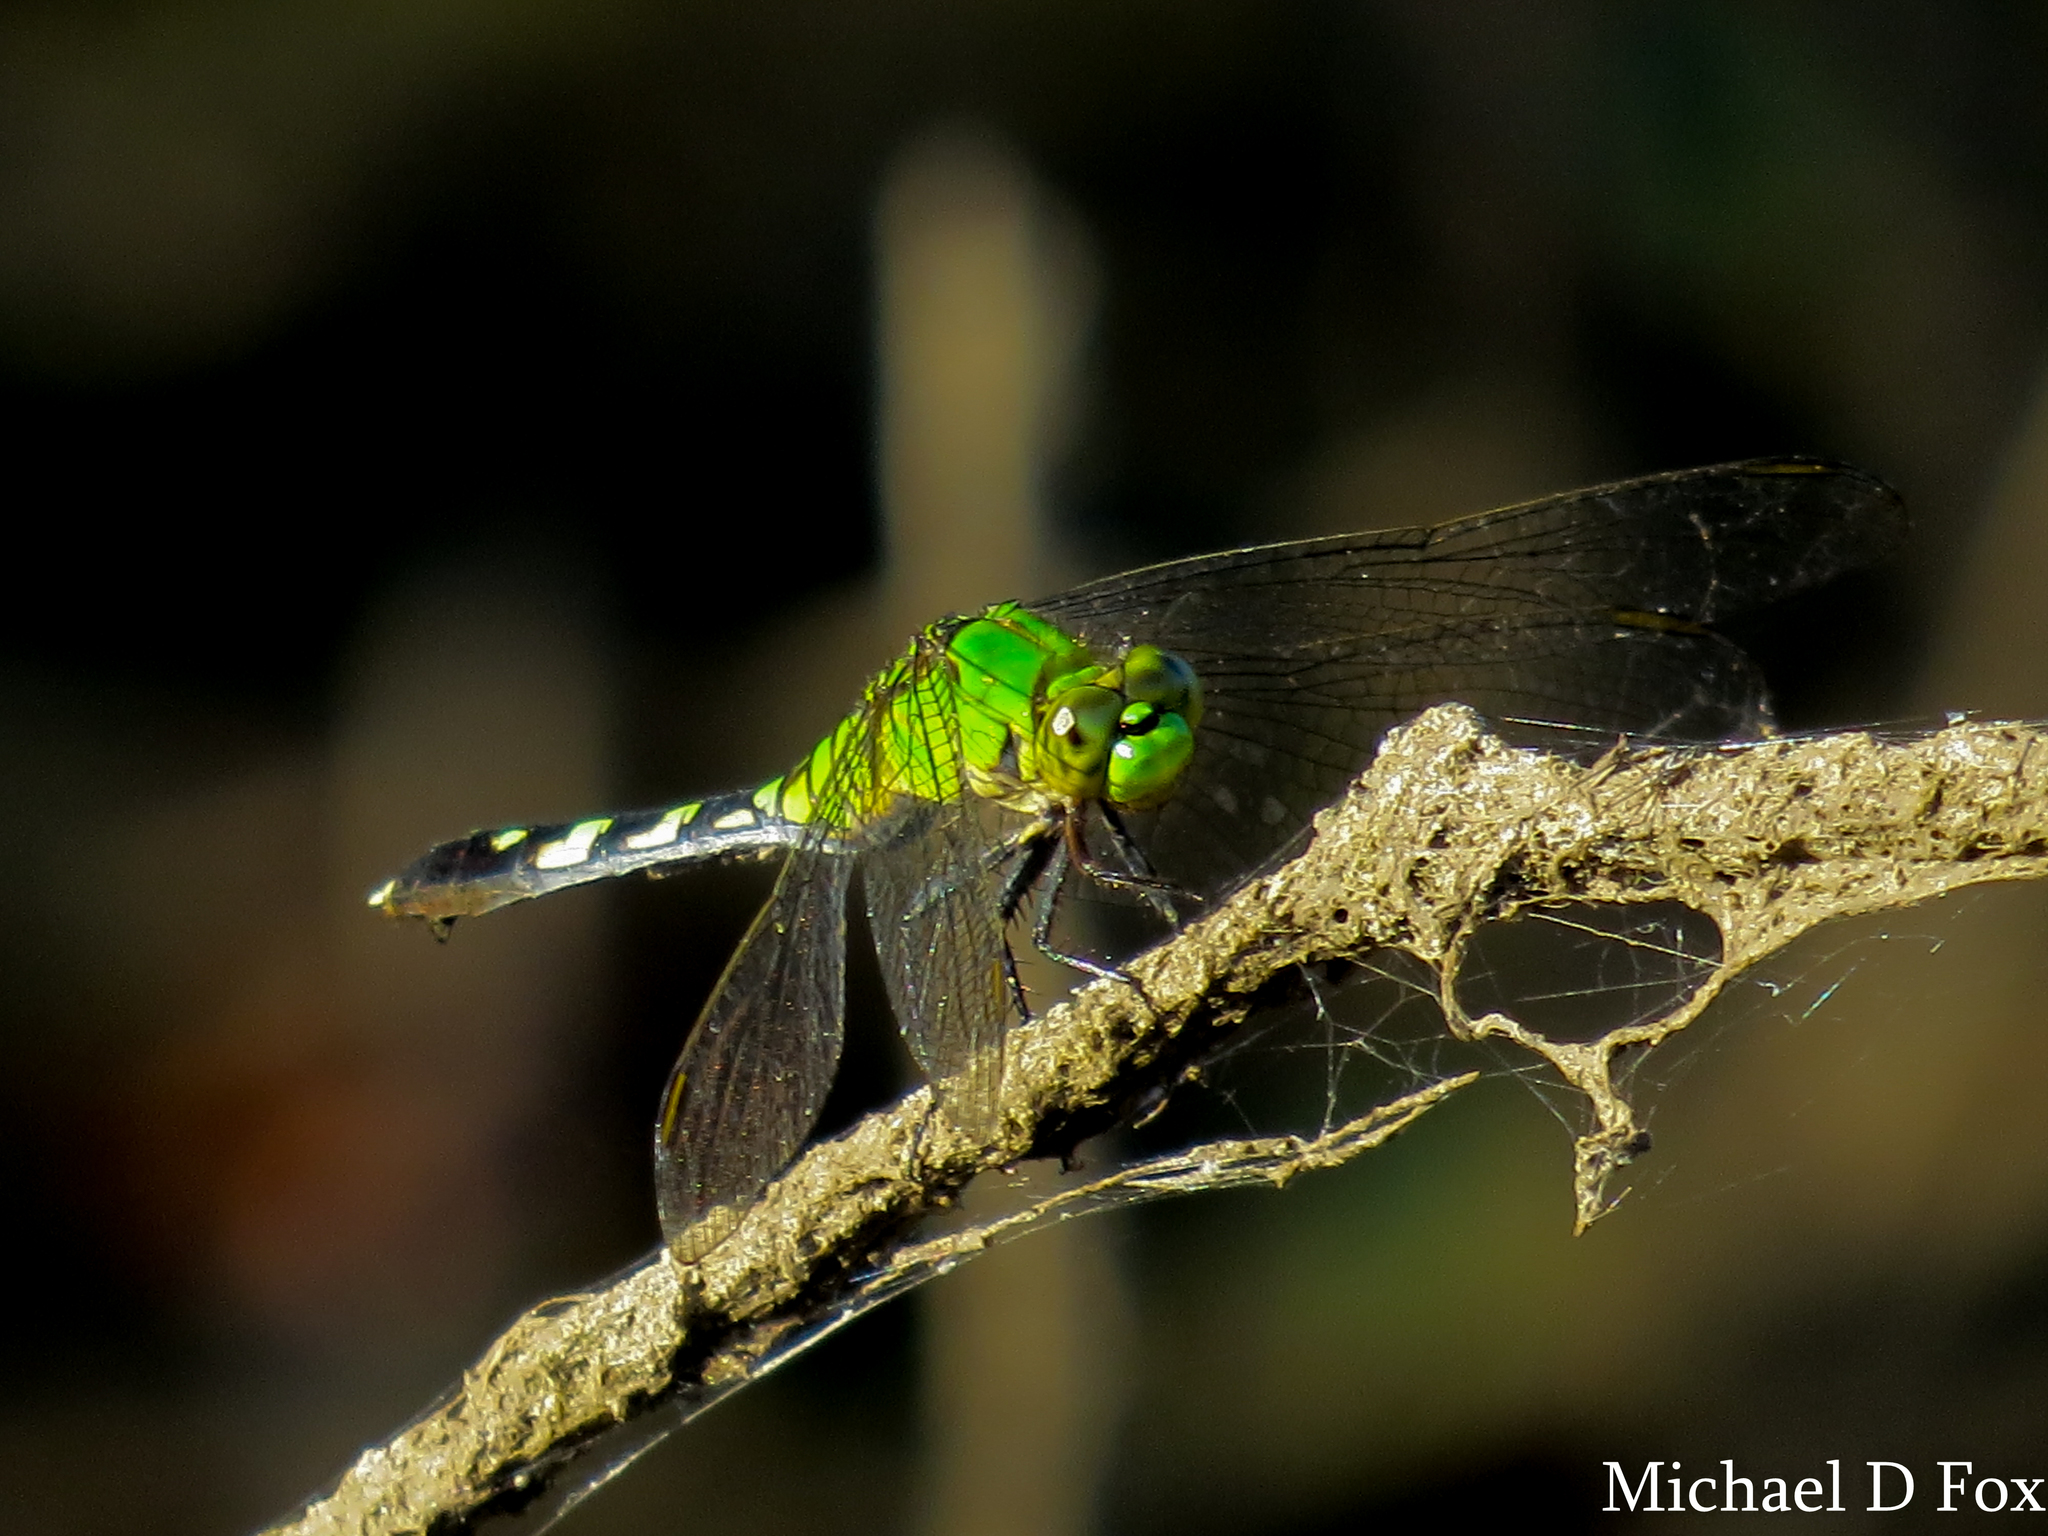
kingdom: Animalia
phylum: Arthropoda
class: Insecta
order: Odonata
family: Libellulidae
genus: Erythemis
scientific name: Erythemis simplicicollis
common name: Eastern pondhawk
